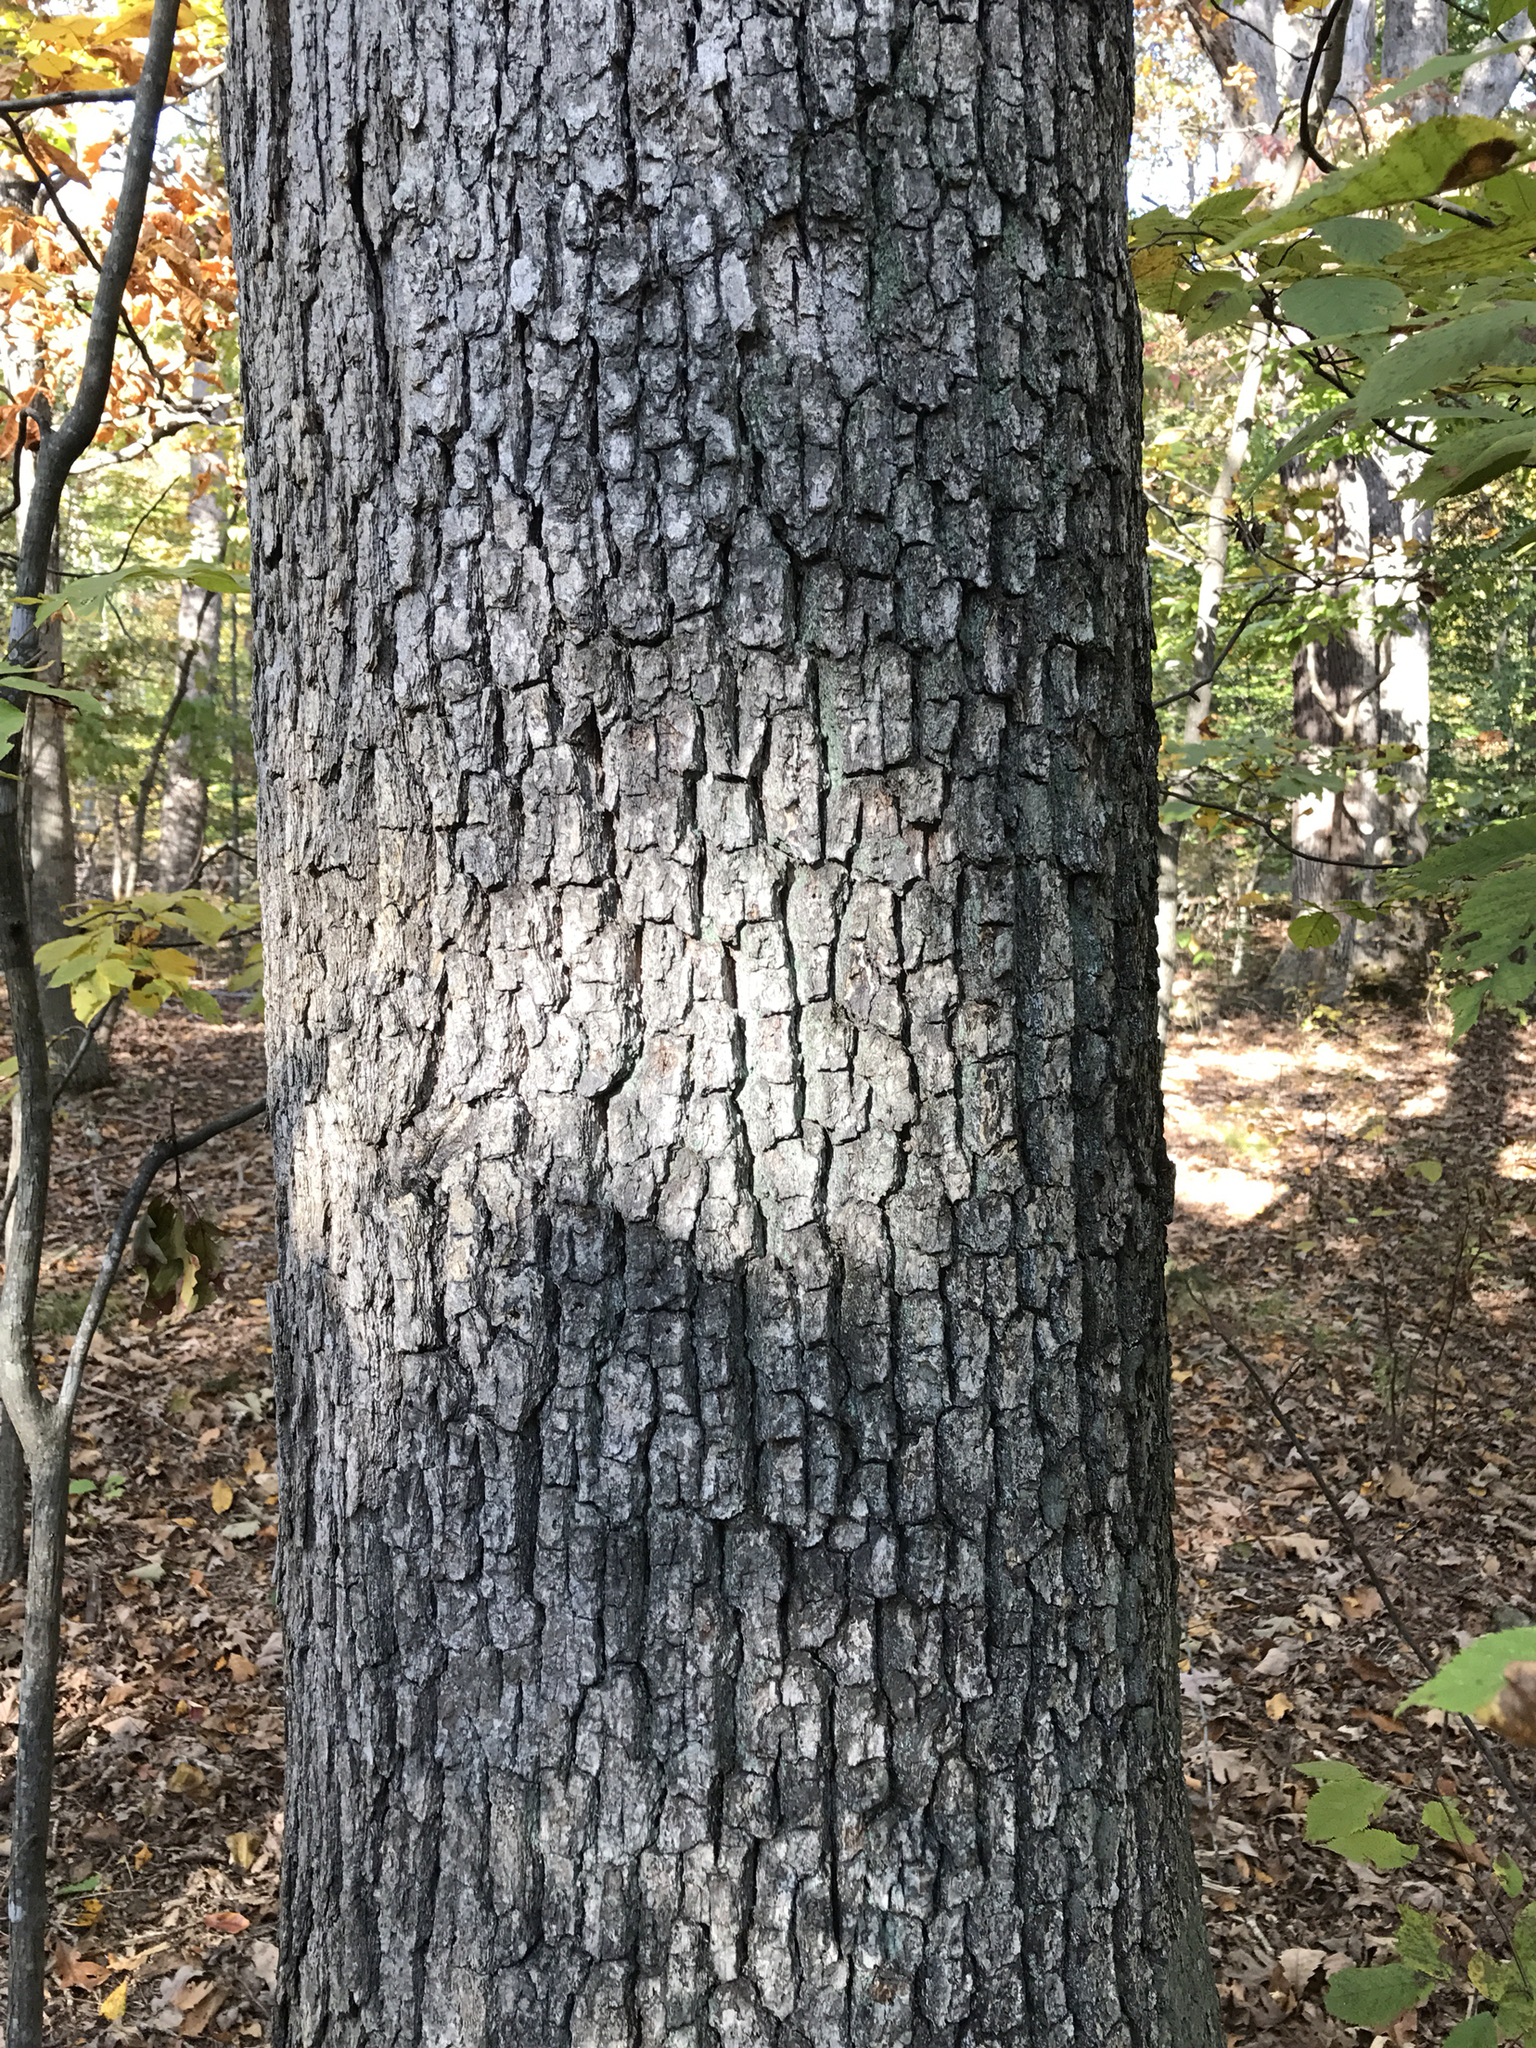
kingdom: Plantae
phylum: Tracheophyta
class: Magnoliopsida
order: Fagales
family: Fagaceae
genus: Quercus
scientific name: Quercus alba
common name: White oak
